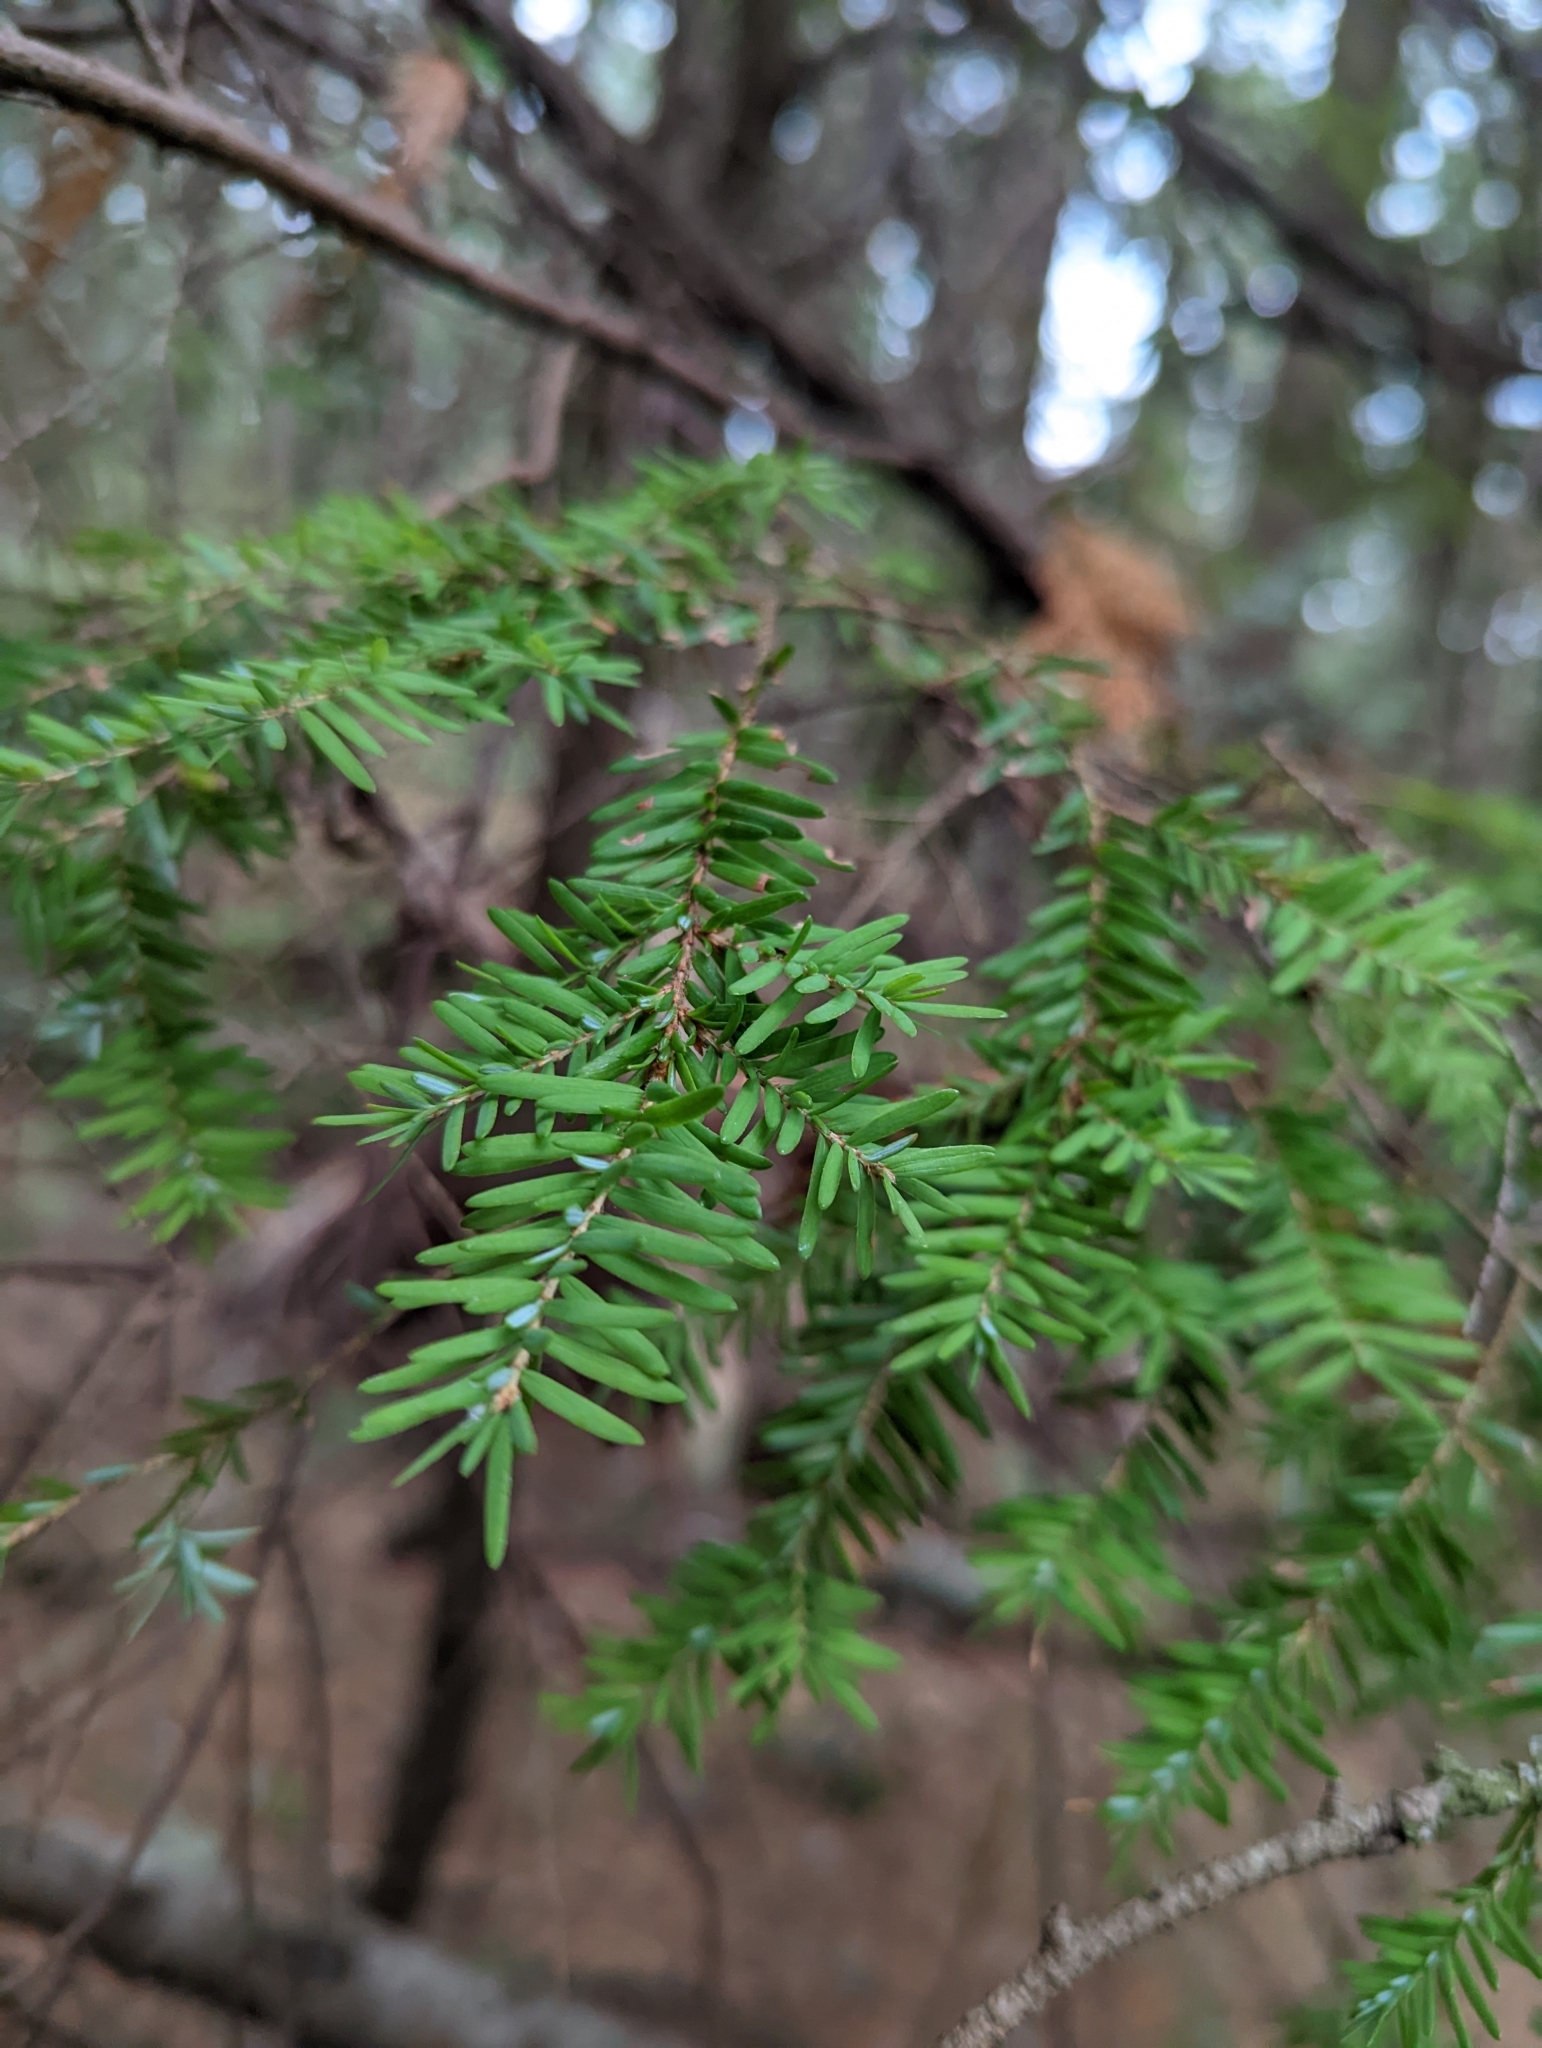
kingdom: Plantae
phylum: Tracheophyta
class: Pinopsida
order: Pinales
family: Pinaceae
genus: Tsuga
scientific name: Tsuga heterophylla
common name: Western hemlock
